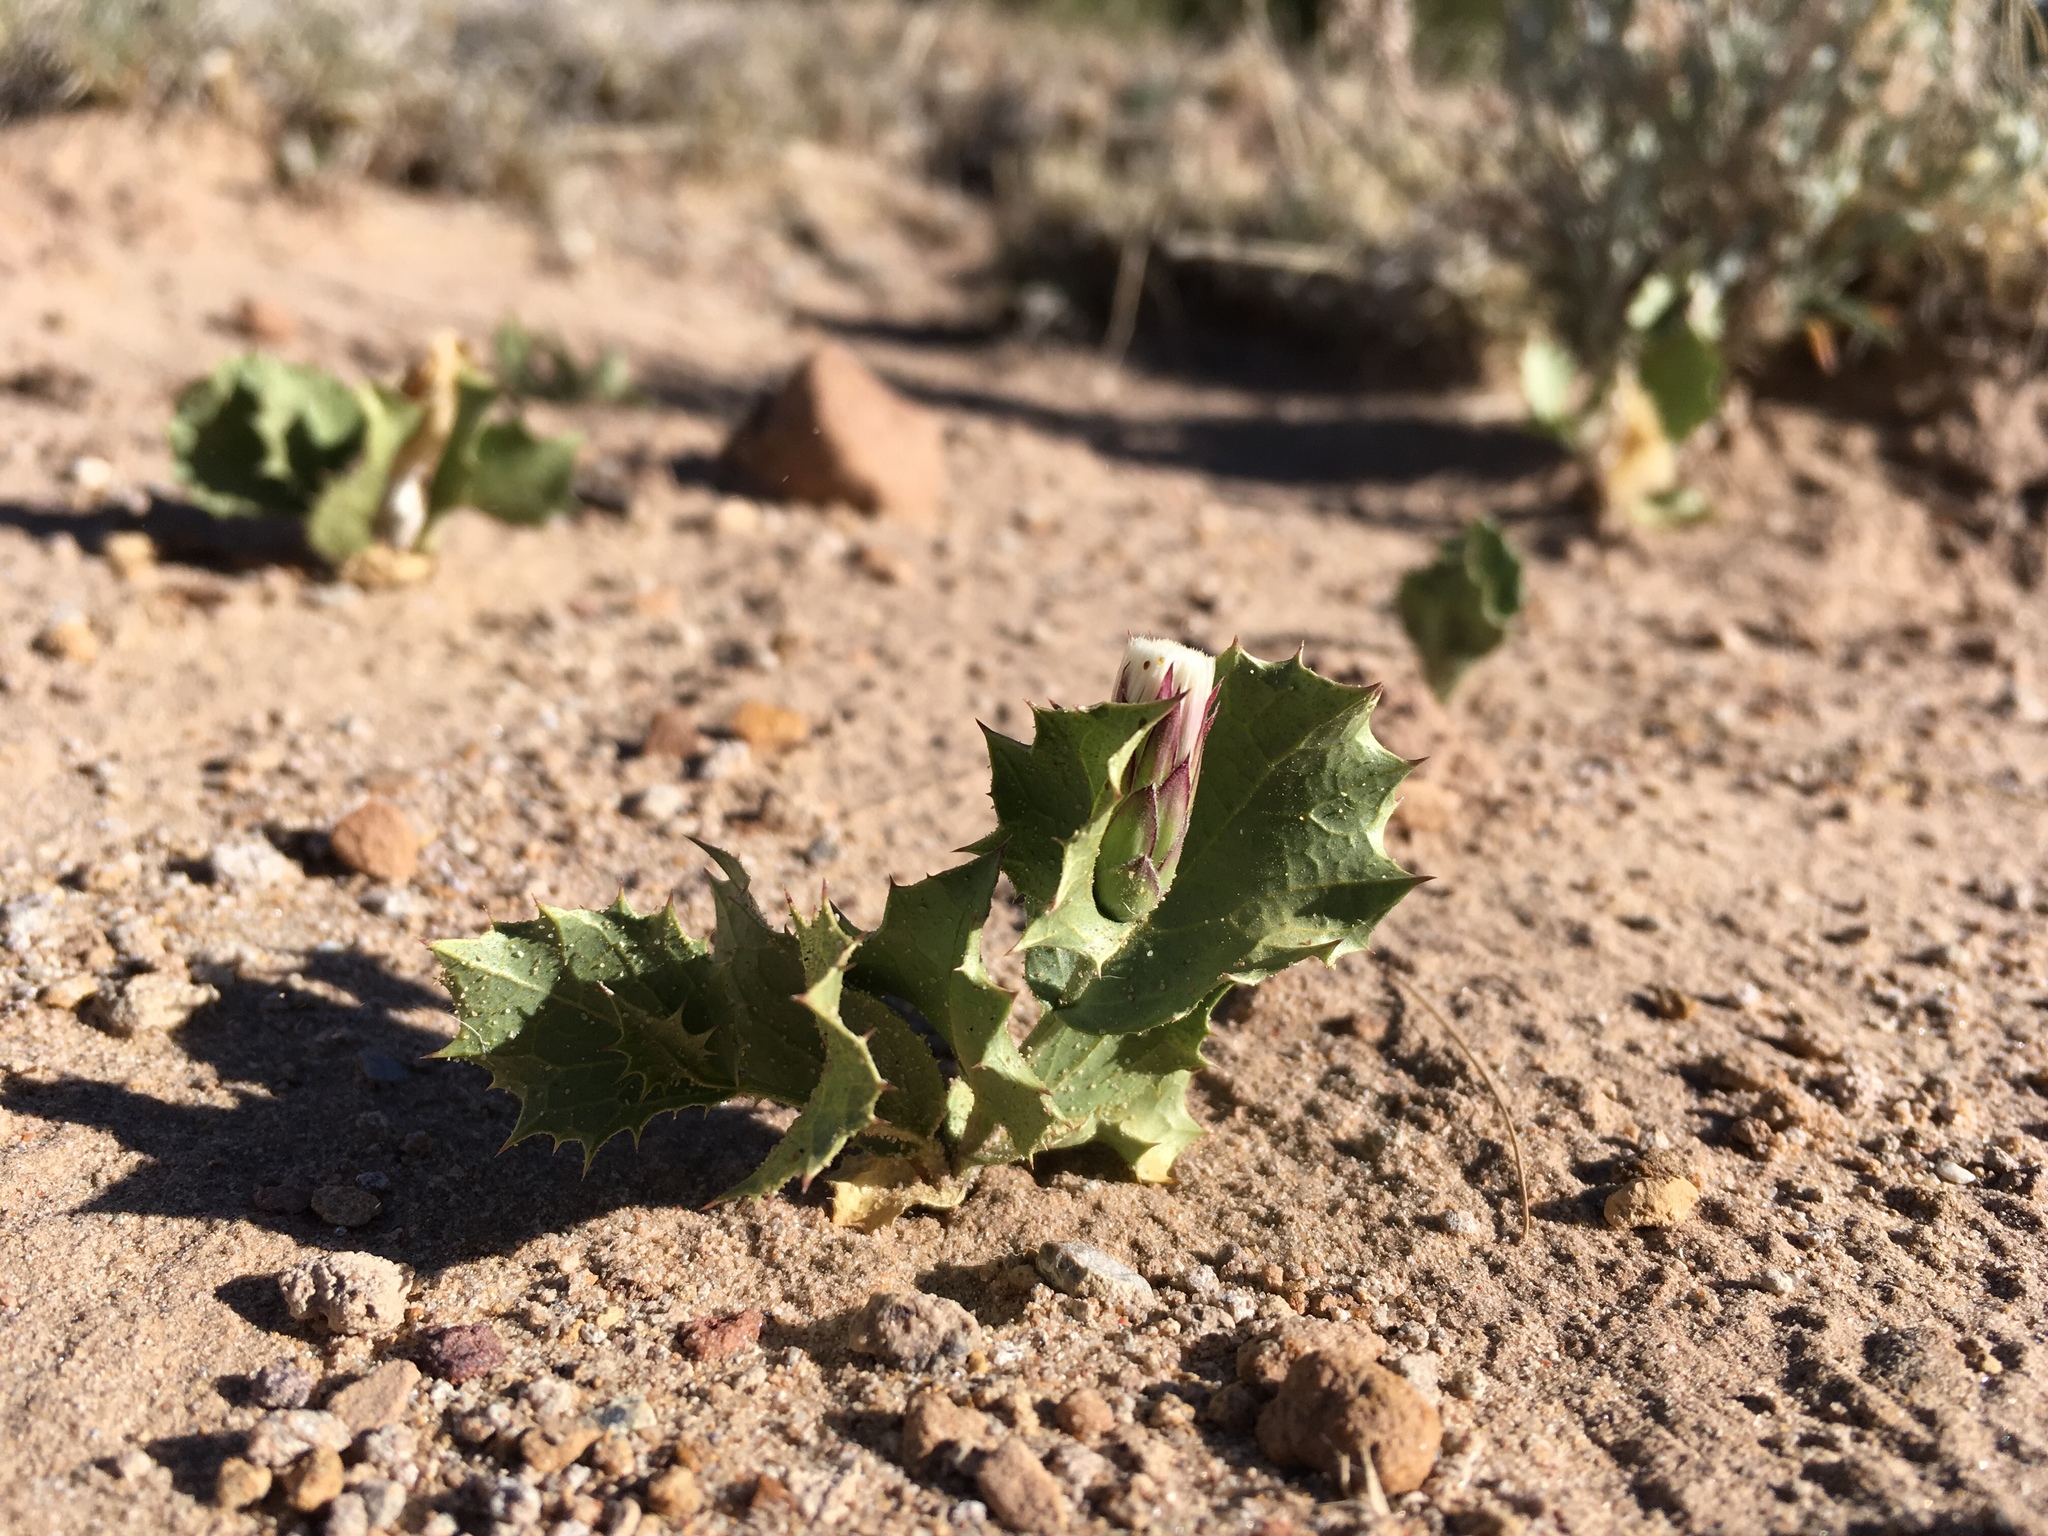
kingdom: Plantae
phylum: Tracheophyta
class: Magnoliopsida
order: Asterales
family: Asteraceae
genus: Acourtia
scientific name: Acourtia nana
